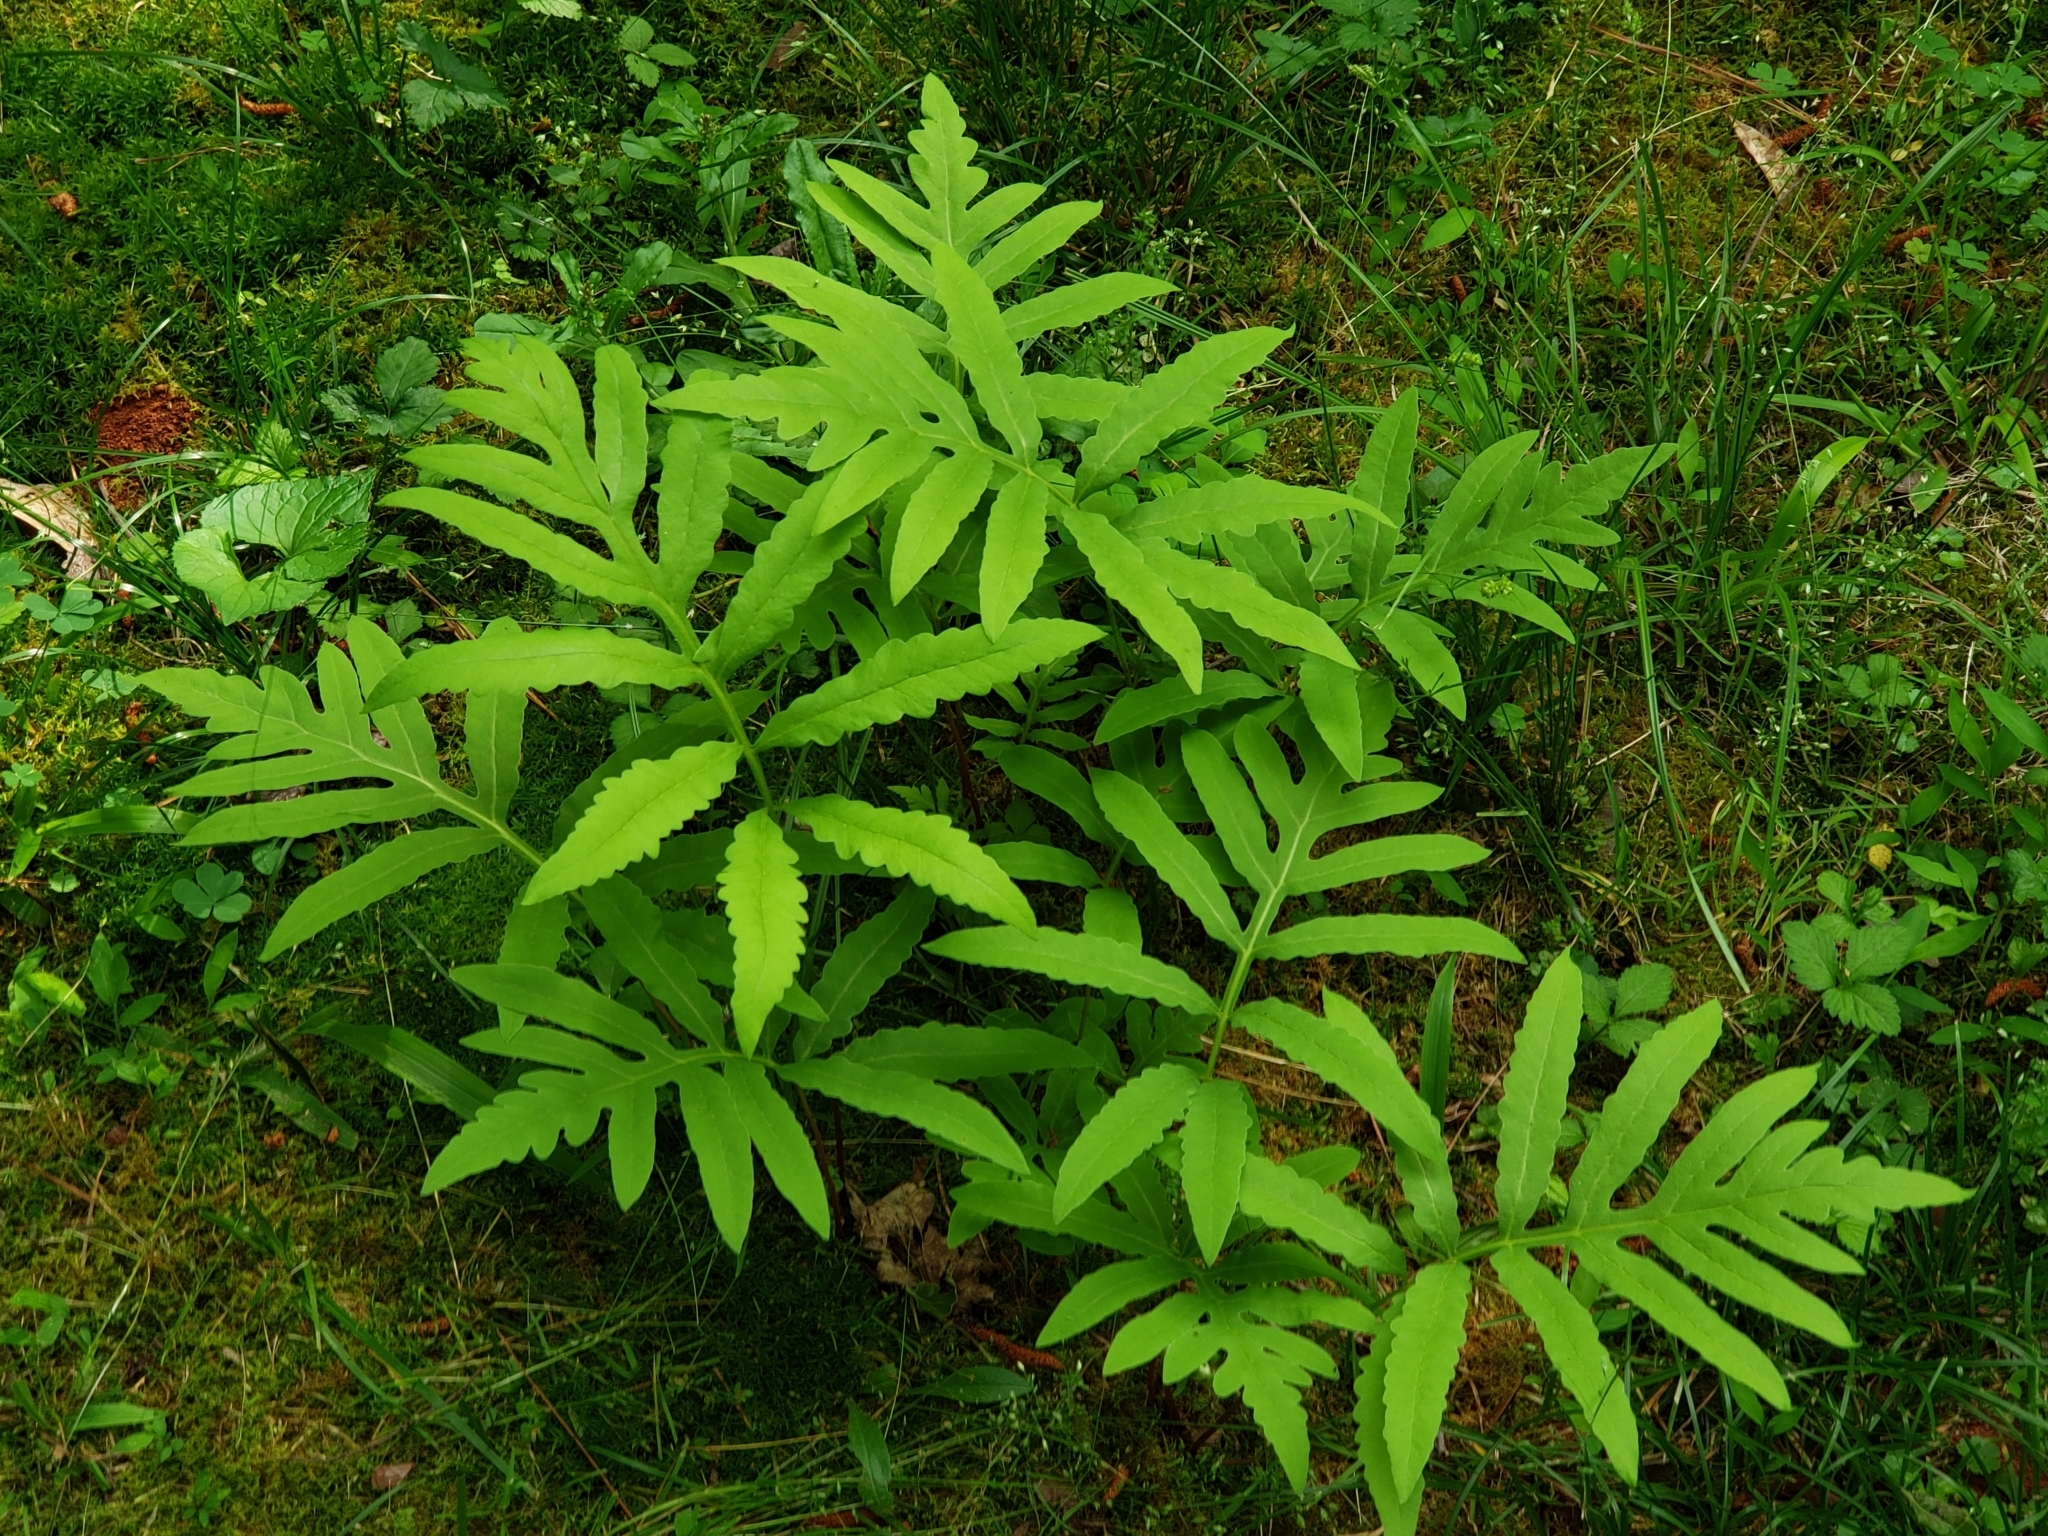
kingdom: Plantae
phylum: Tracheophyta
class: Polypodiopsida
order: Polypodiales
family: Onocleaceae
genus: Onoclea
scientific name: Onoclea sensibilis
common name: Sensitive fern
